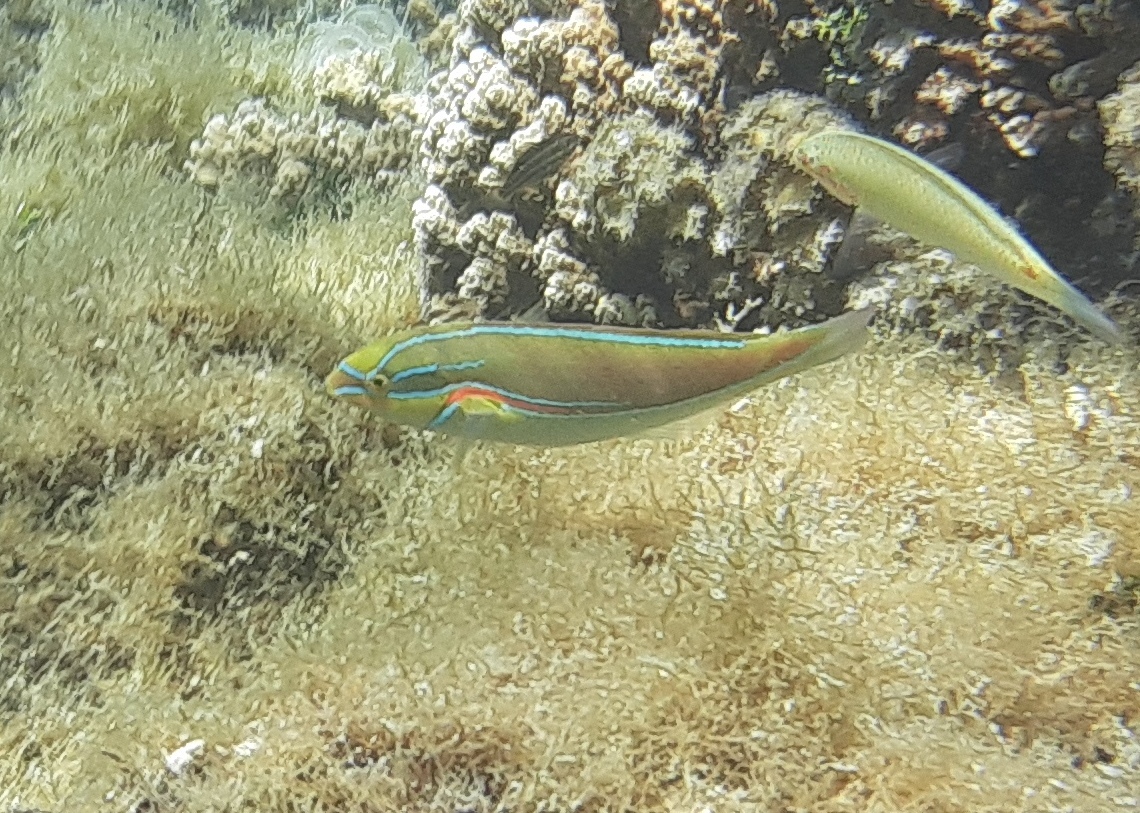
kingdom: Animalia
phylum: Chordata
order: Perciformes
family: Labridae
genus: Stethojulis
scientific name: Stethojulis bandanensis
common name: Red shoulder wrasse
